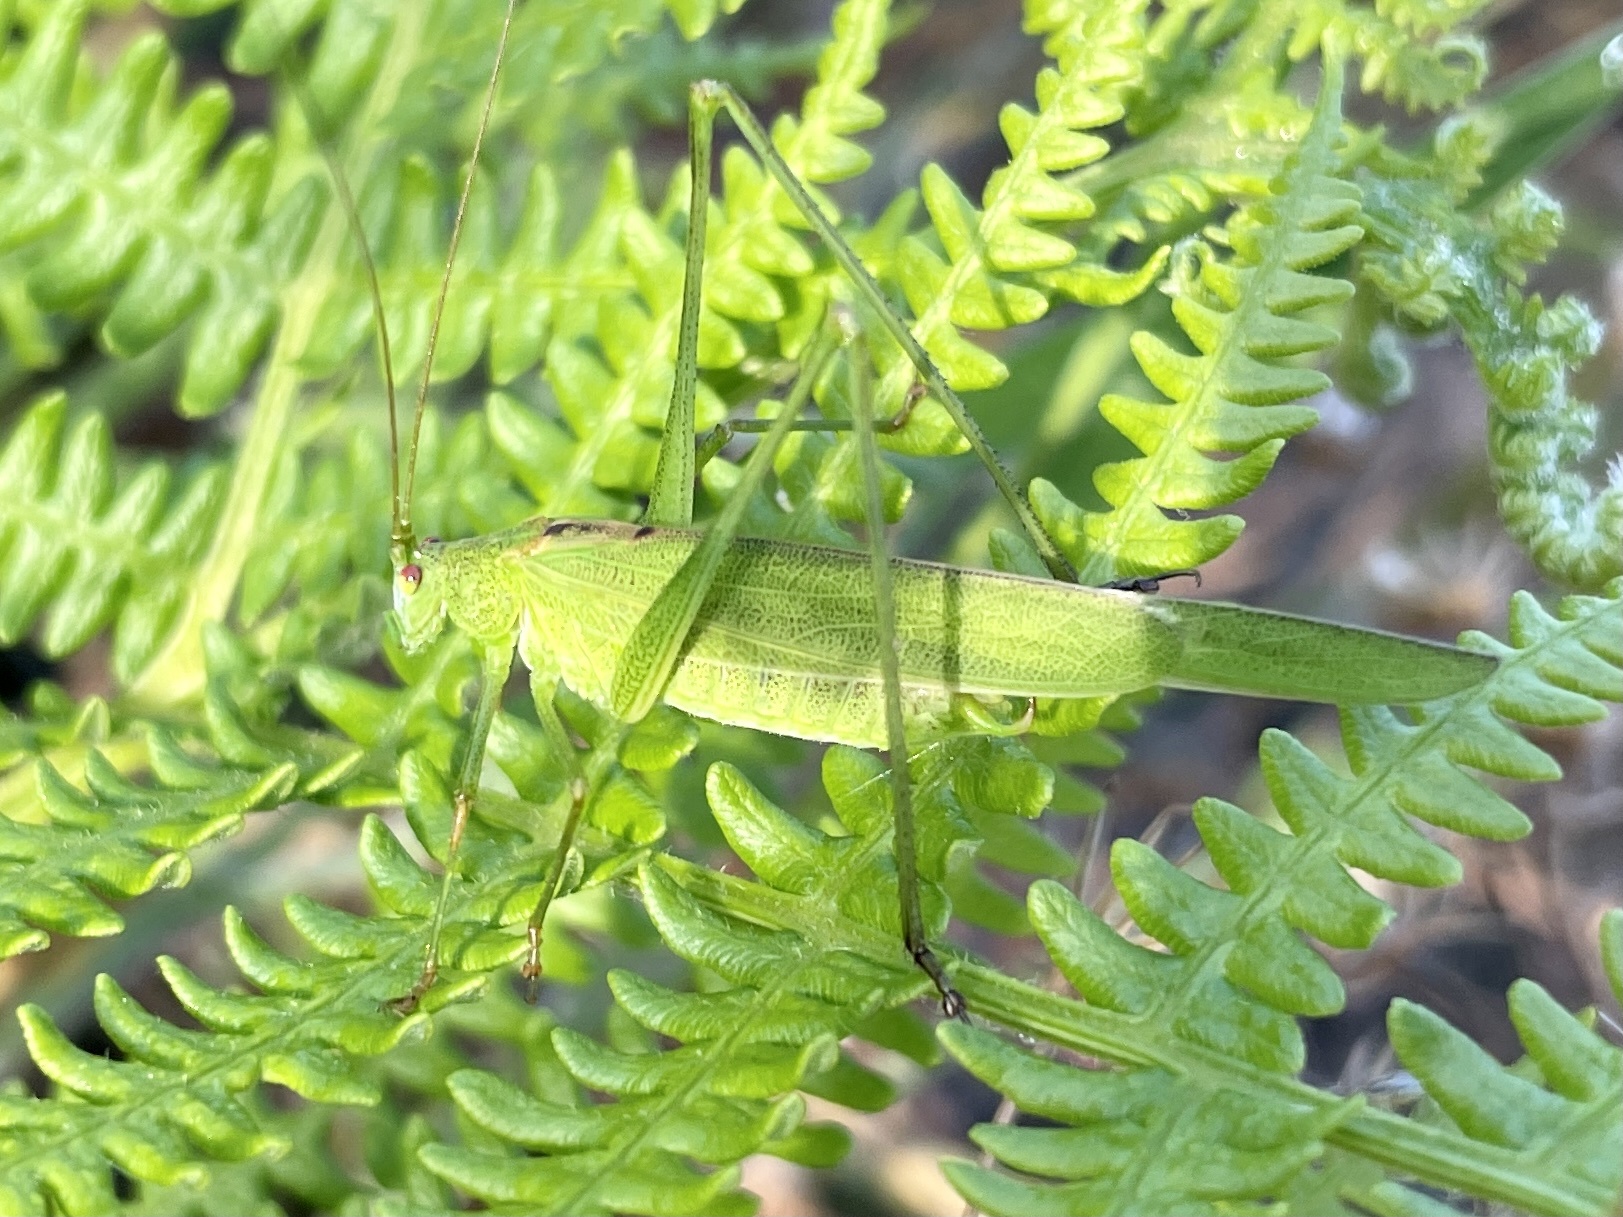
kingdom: Animalia
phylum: Arthropoda
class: Insecta
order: Orthoptera
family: Tettigoniidae
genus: Phaneroptera
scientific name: Phaneroptera falcata
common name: Sickle-bearing bush-cricket
